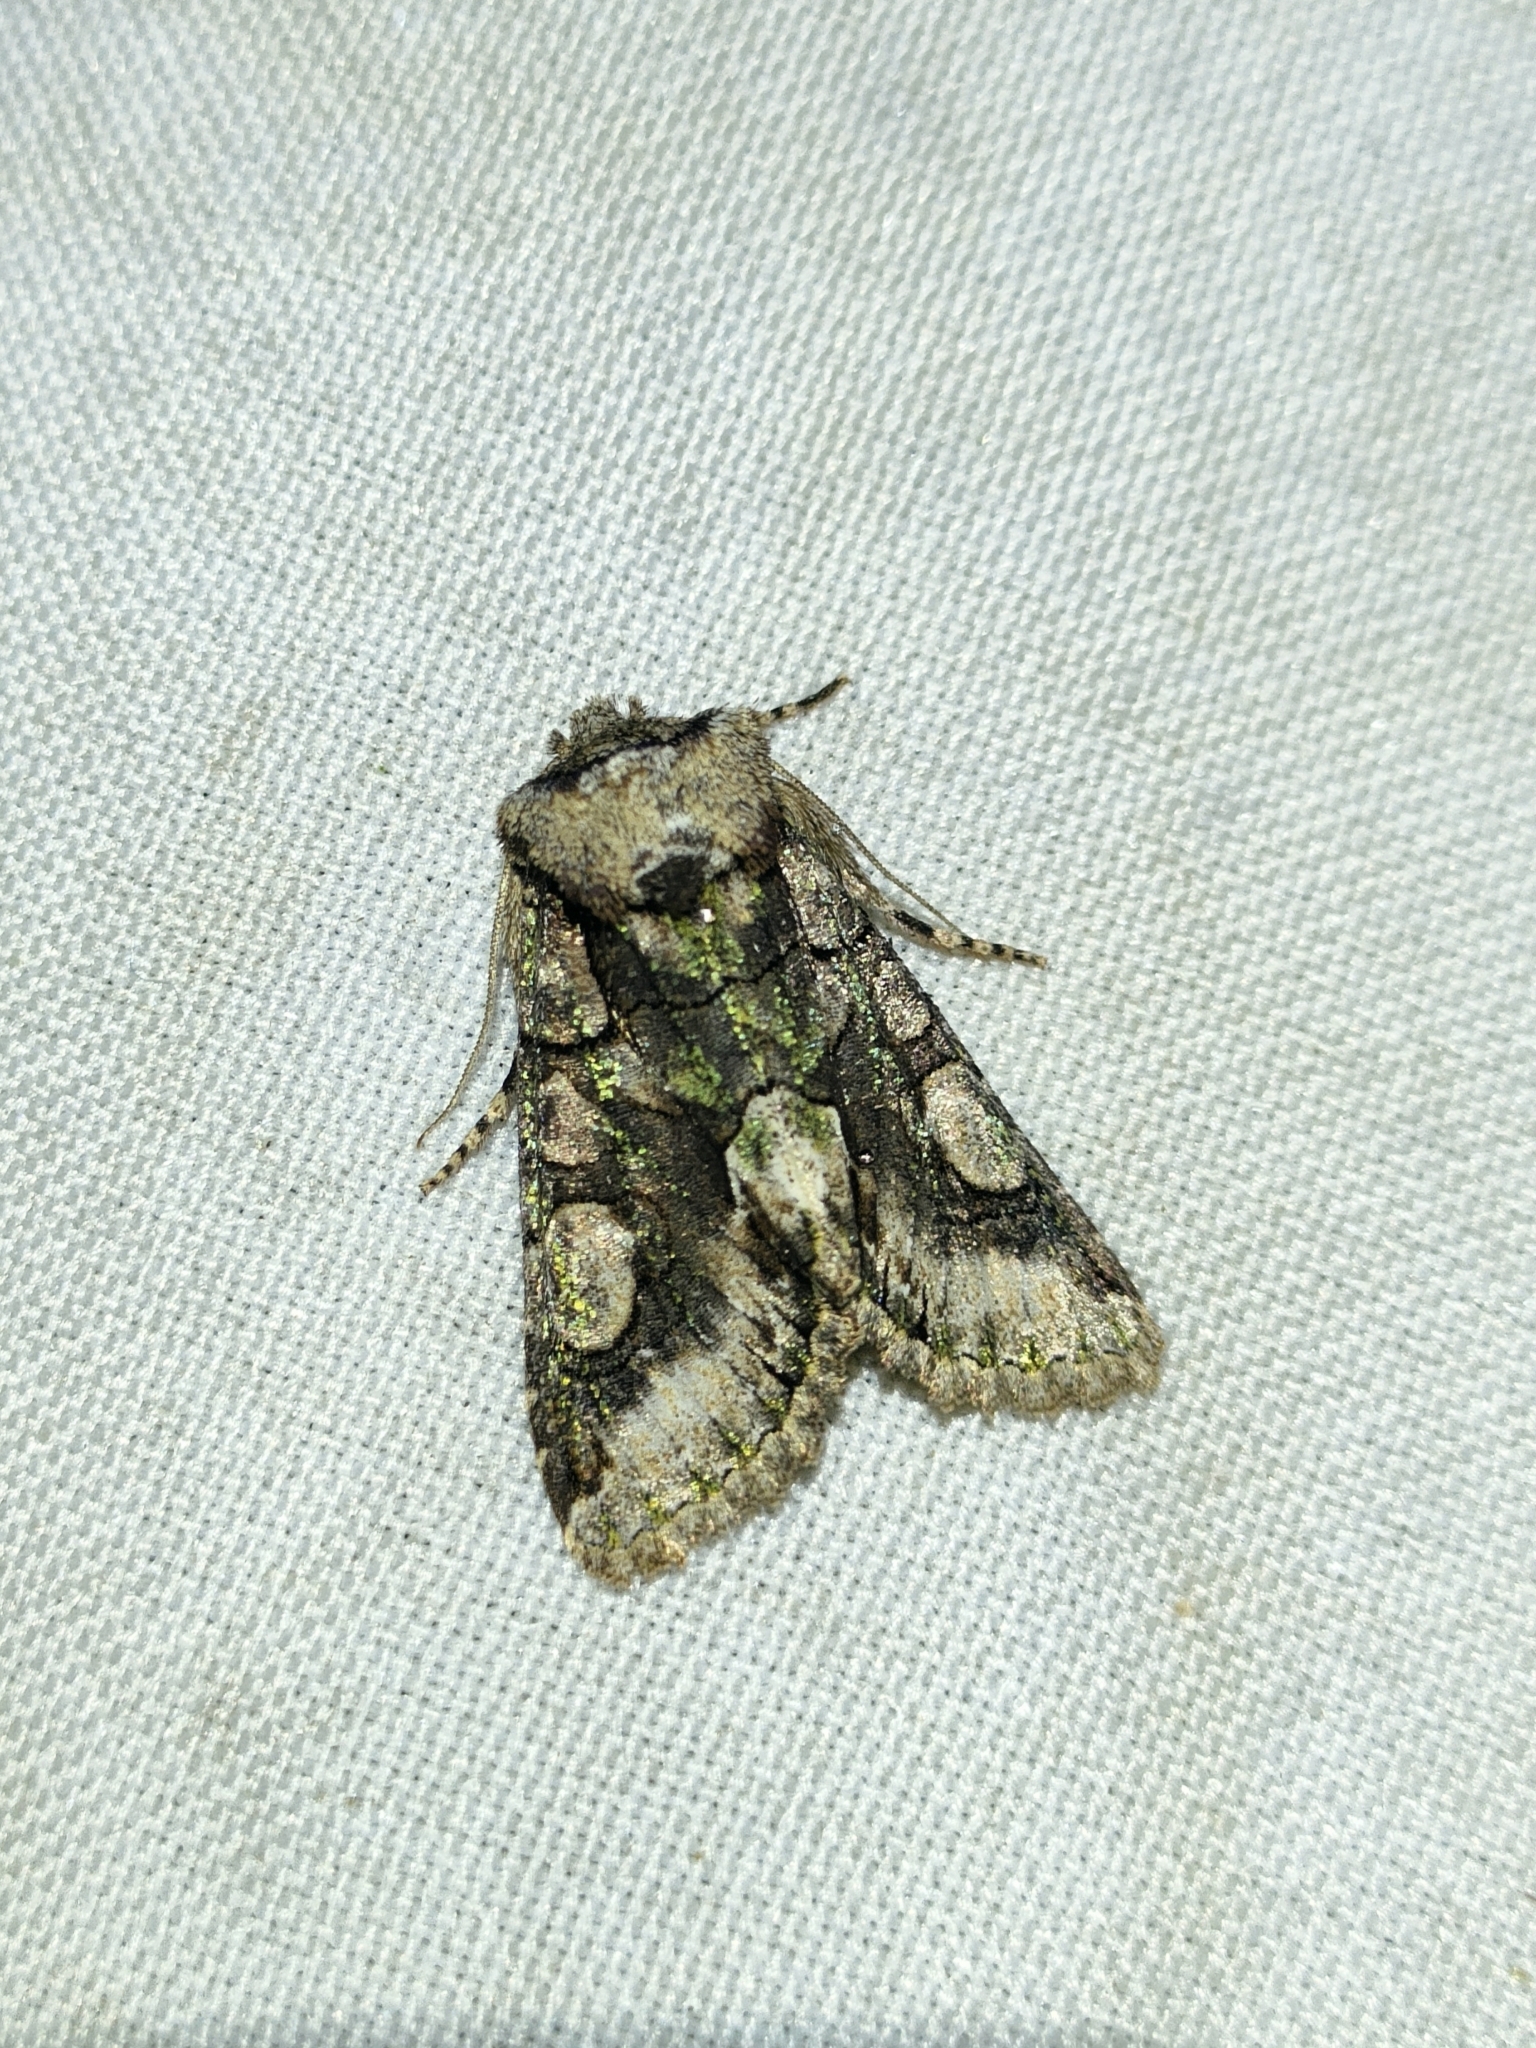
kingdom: Animalia
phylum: Arthropoda
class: Insecta
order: Lepidoptera
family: Noctuidae
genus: Allophyes
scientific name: Allophyes alfaroi
